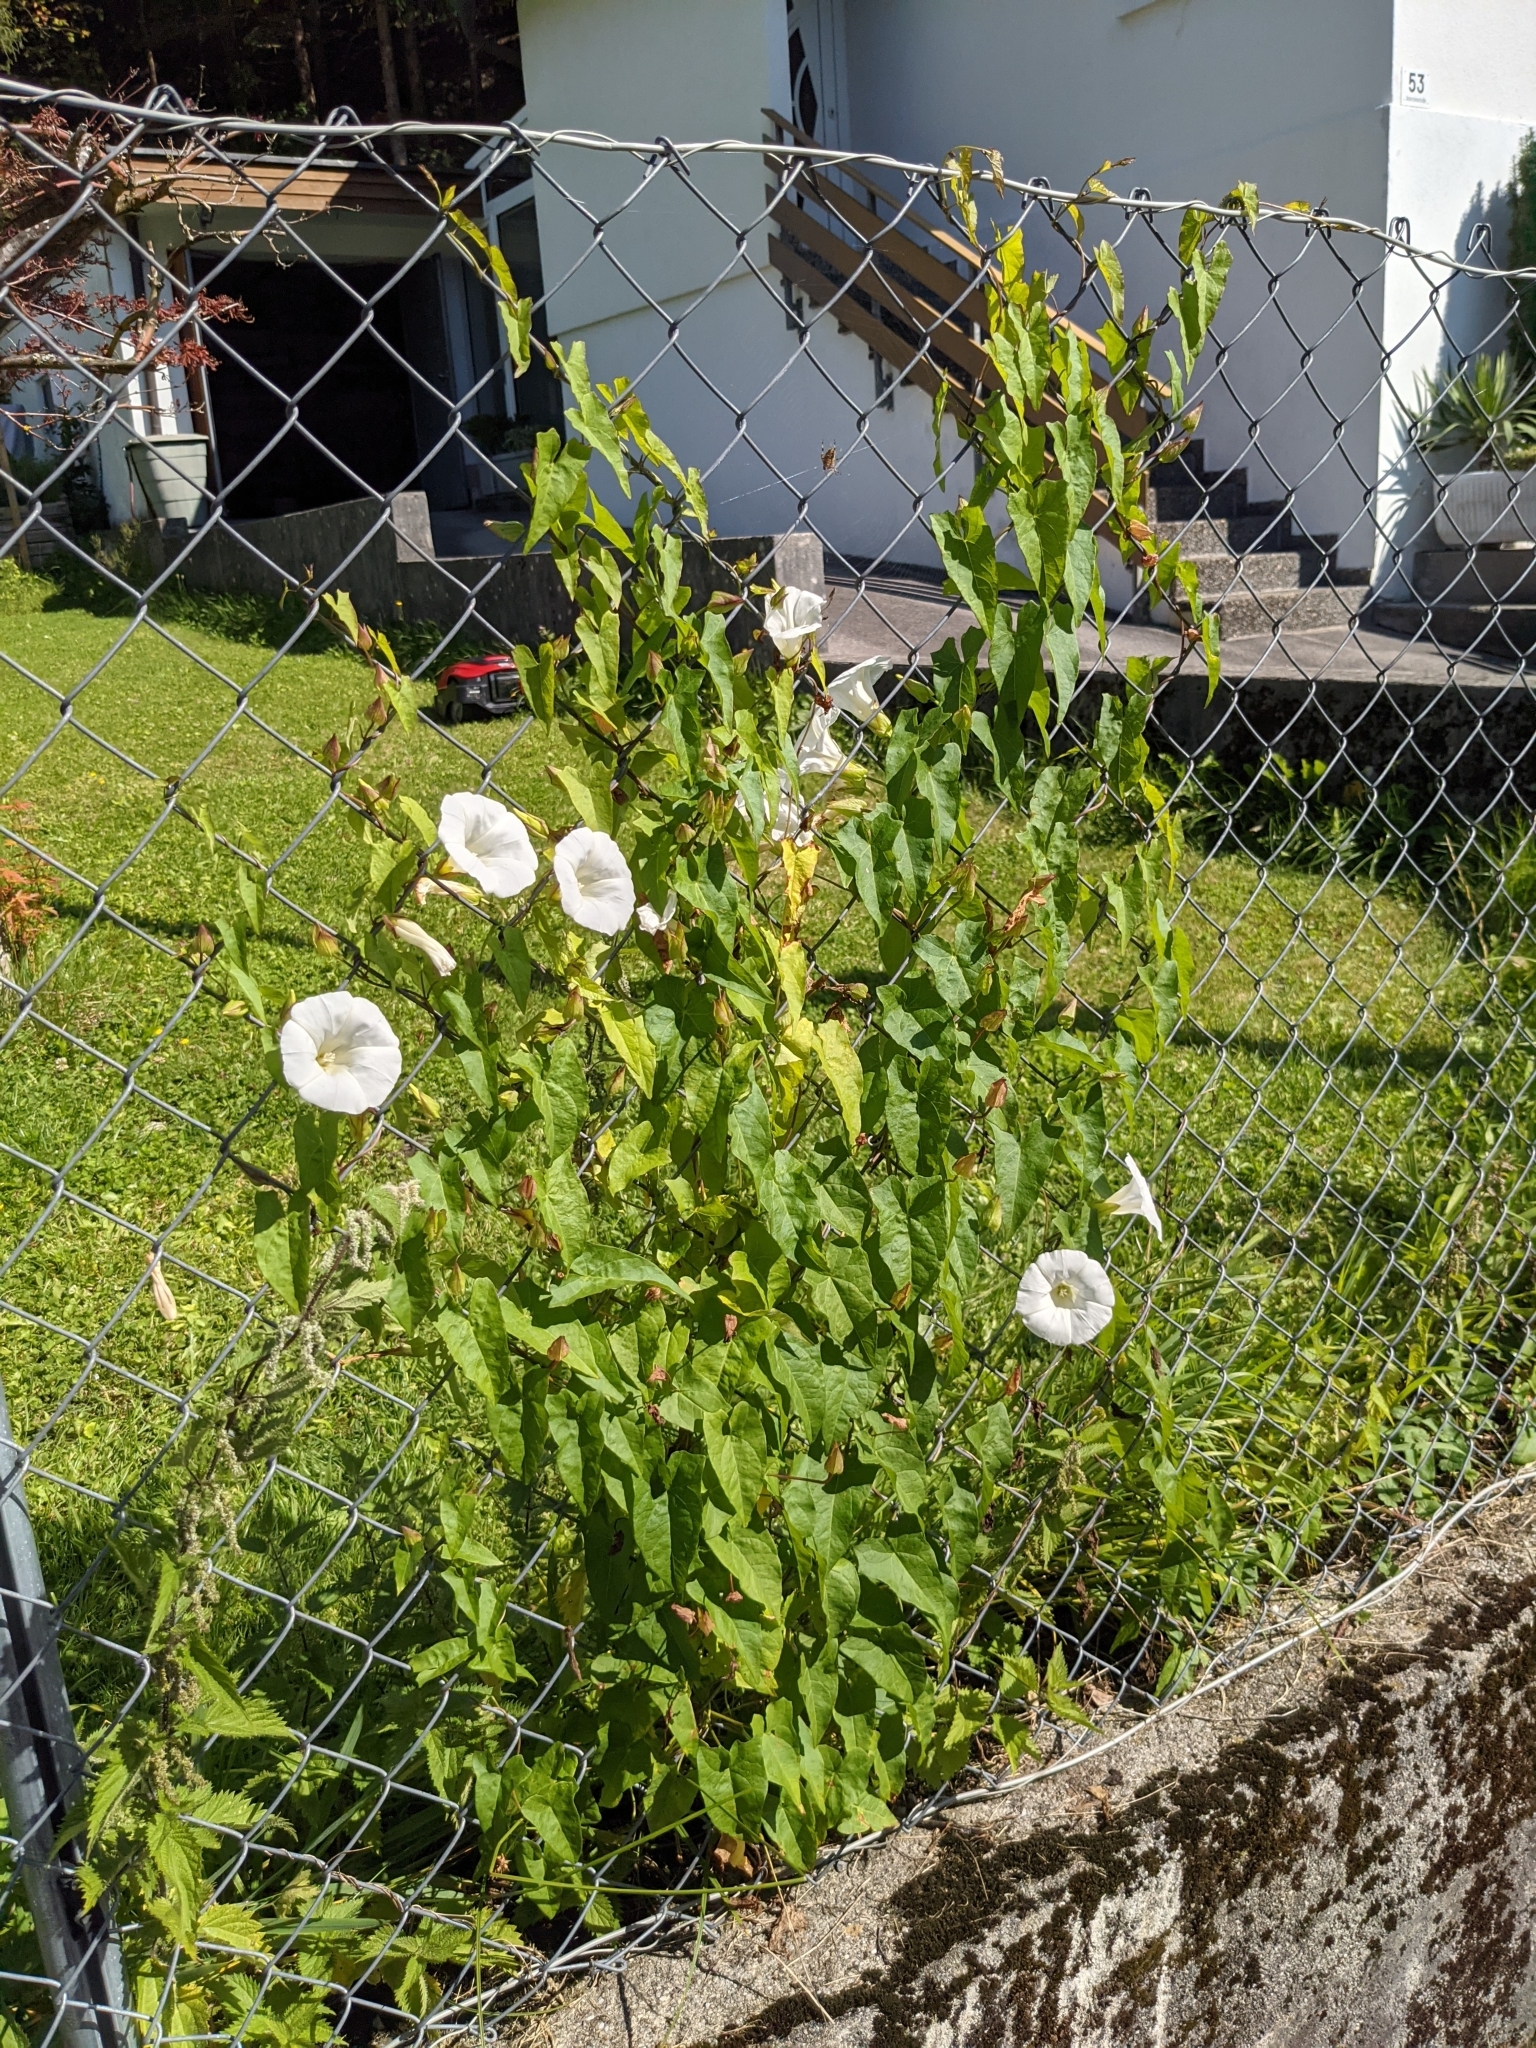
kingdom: Plantae
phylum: Tracheophyta
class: Magnoliopsida
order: Solanales
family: Convolvulaceae
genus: Calystegia
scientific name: Calystegia sepium
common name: Hedge bindweed
